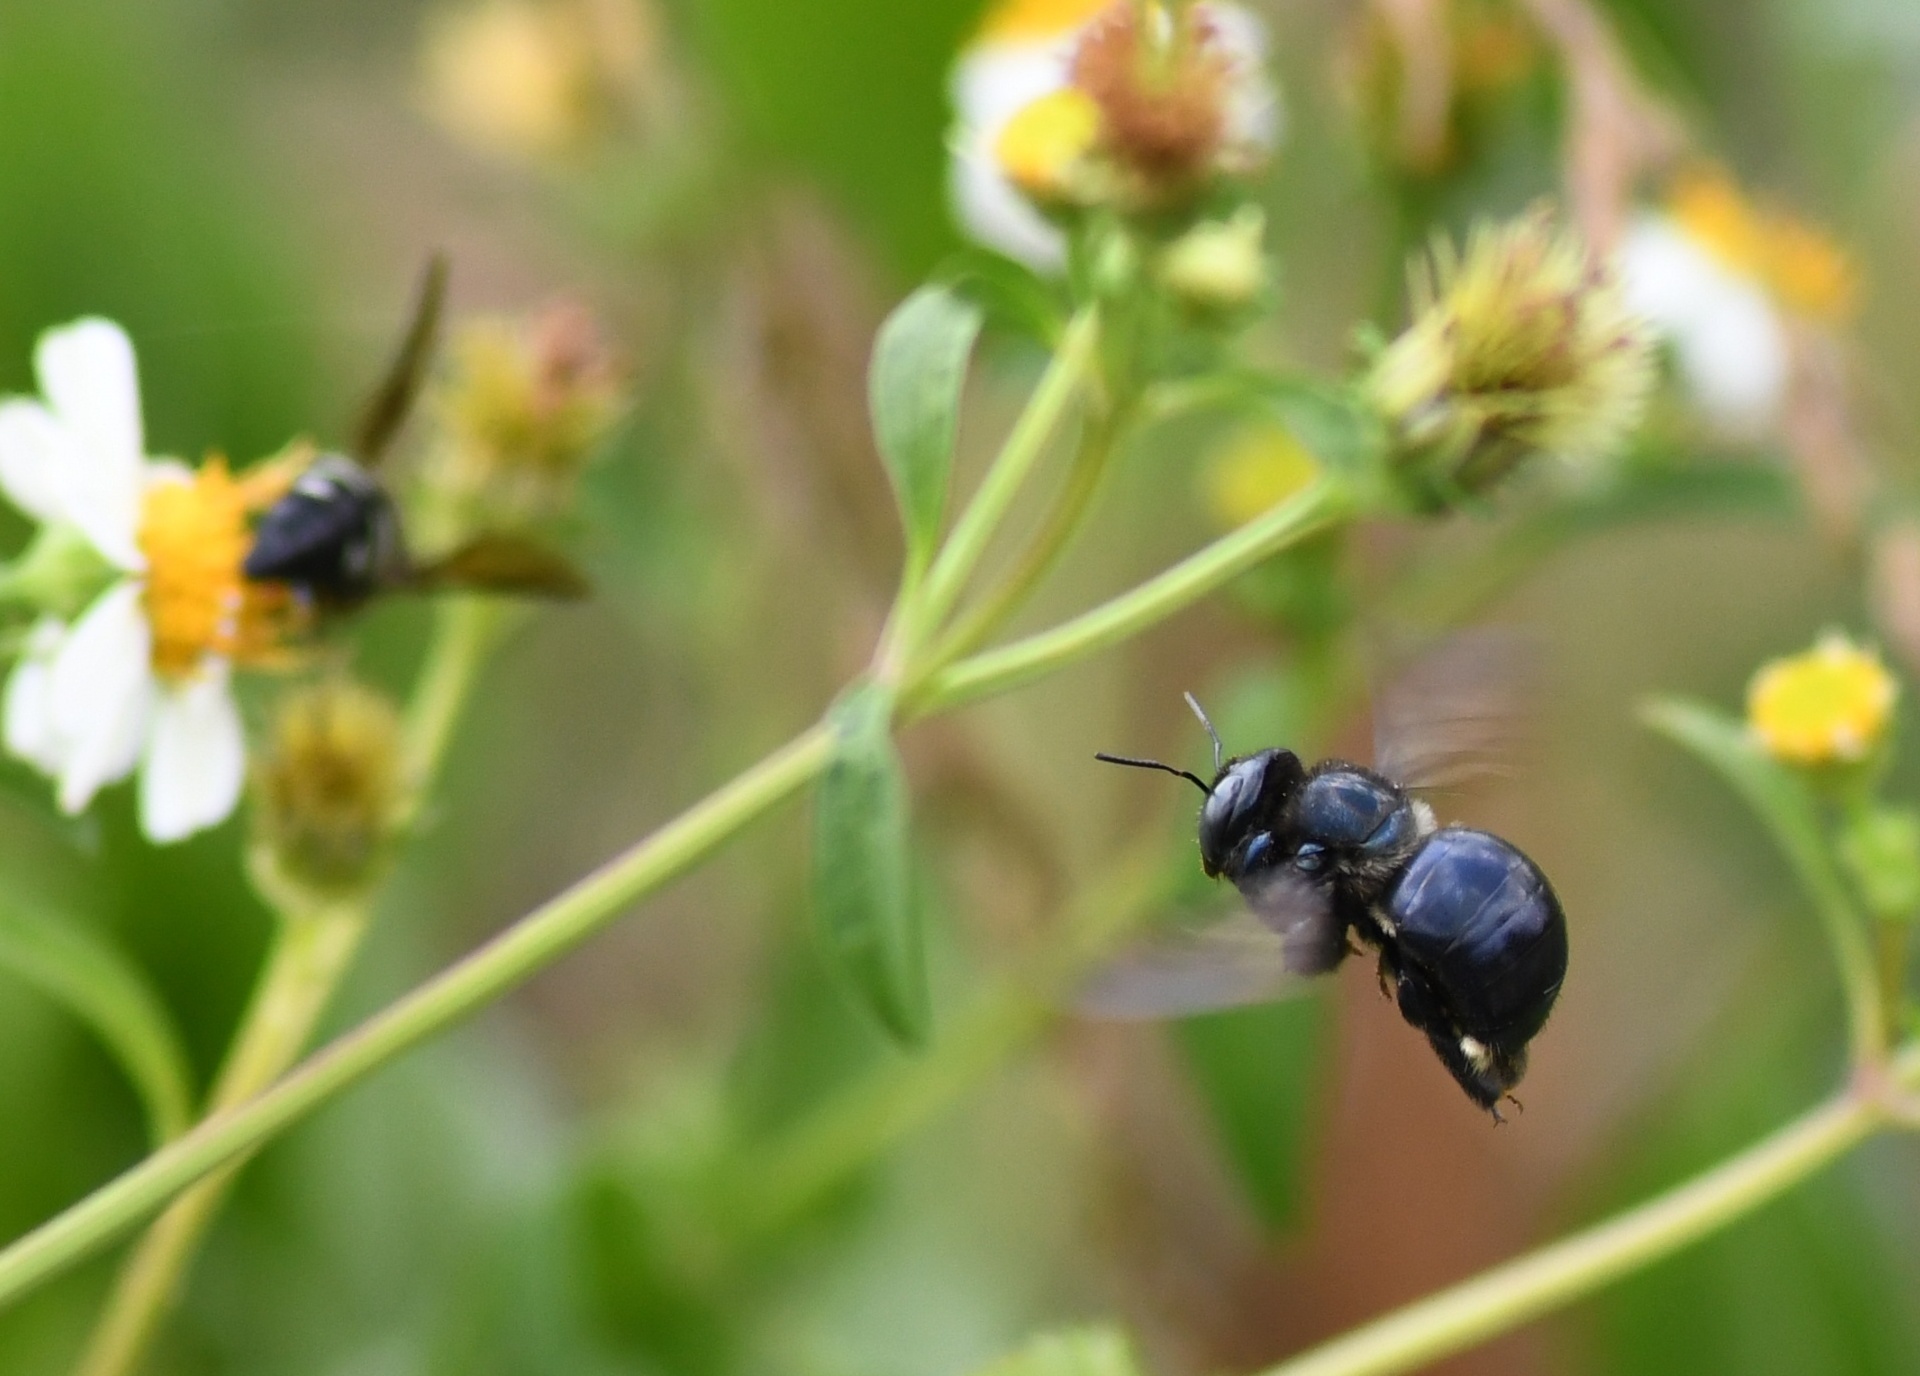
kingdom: Animalia
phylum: Arthropoda
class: Insecta
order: Hymenoptera
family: Apidae
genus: Xylocopa
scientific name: Xylocopa micans
